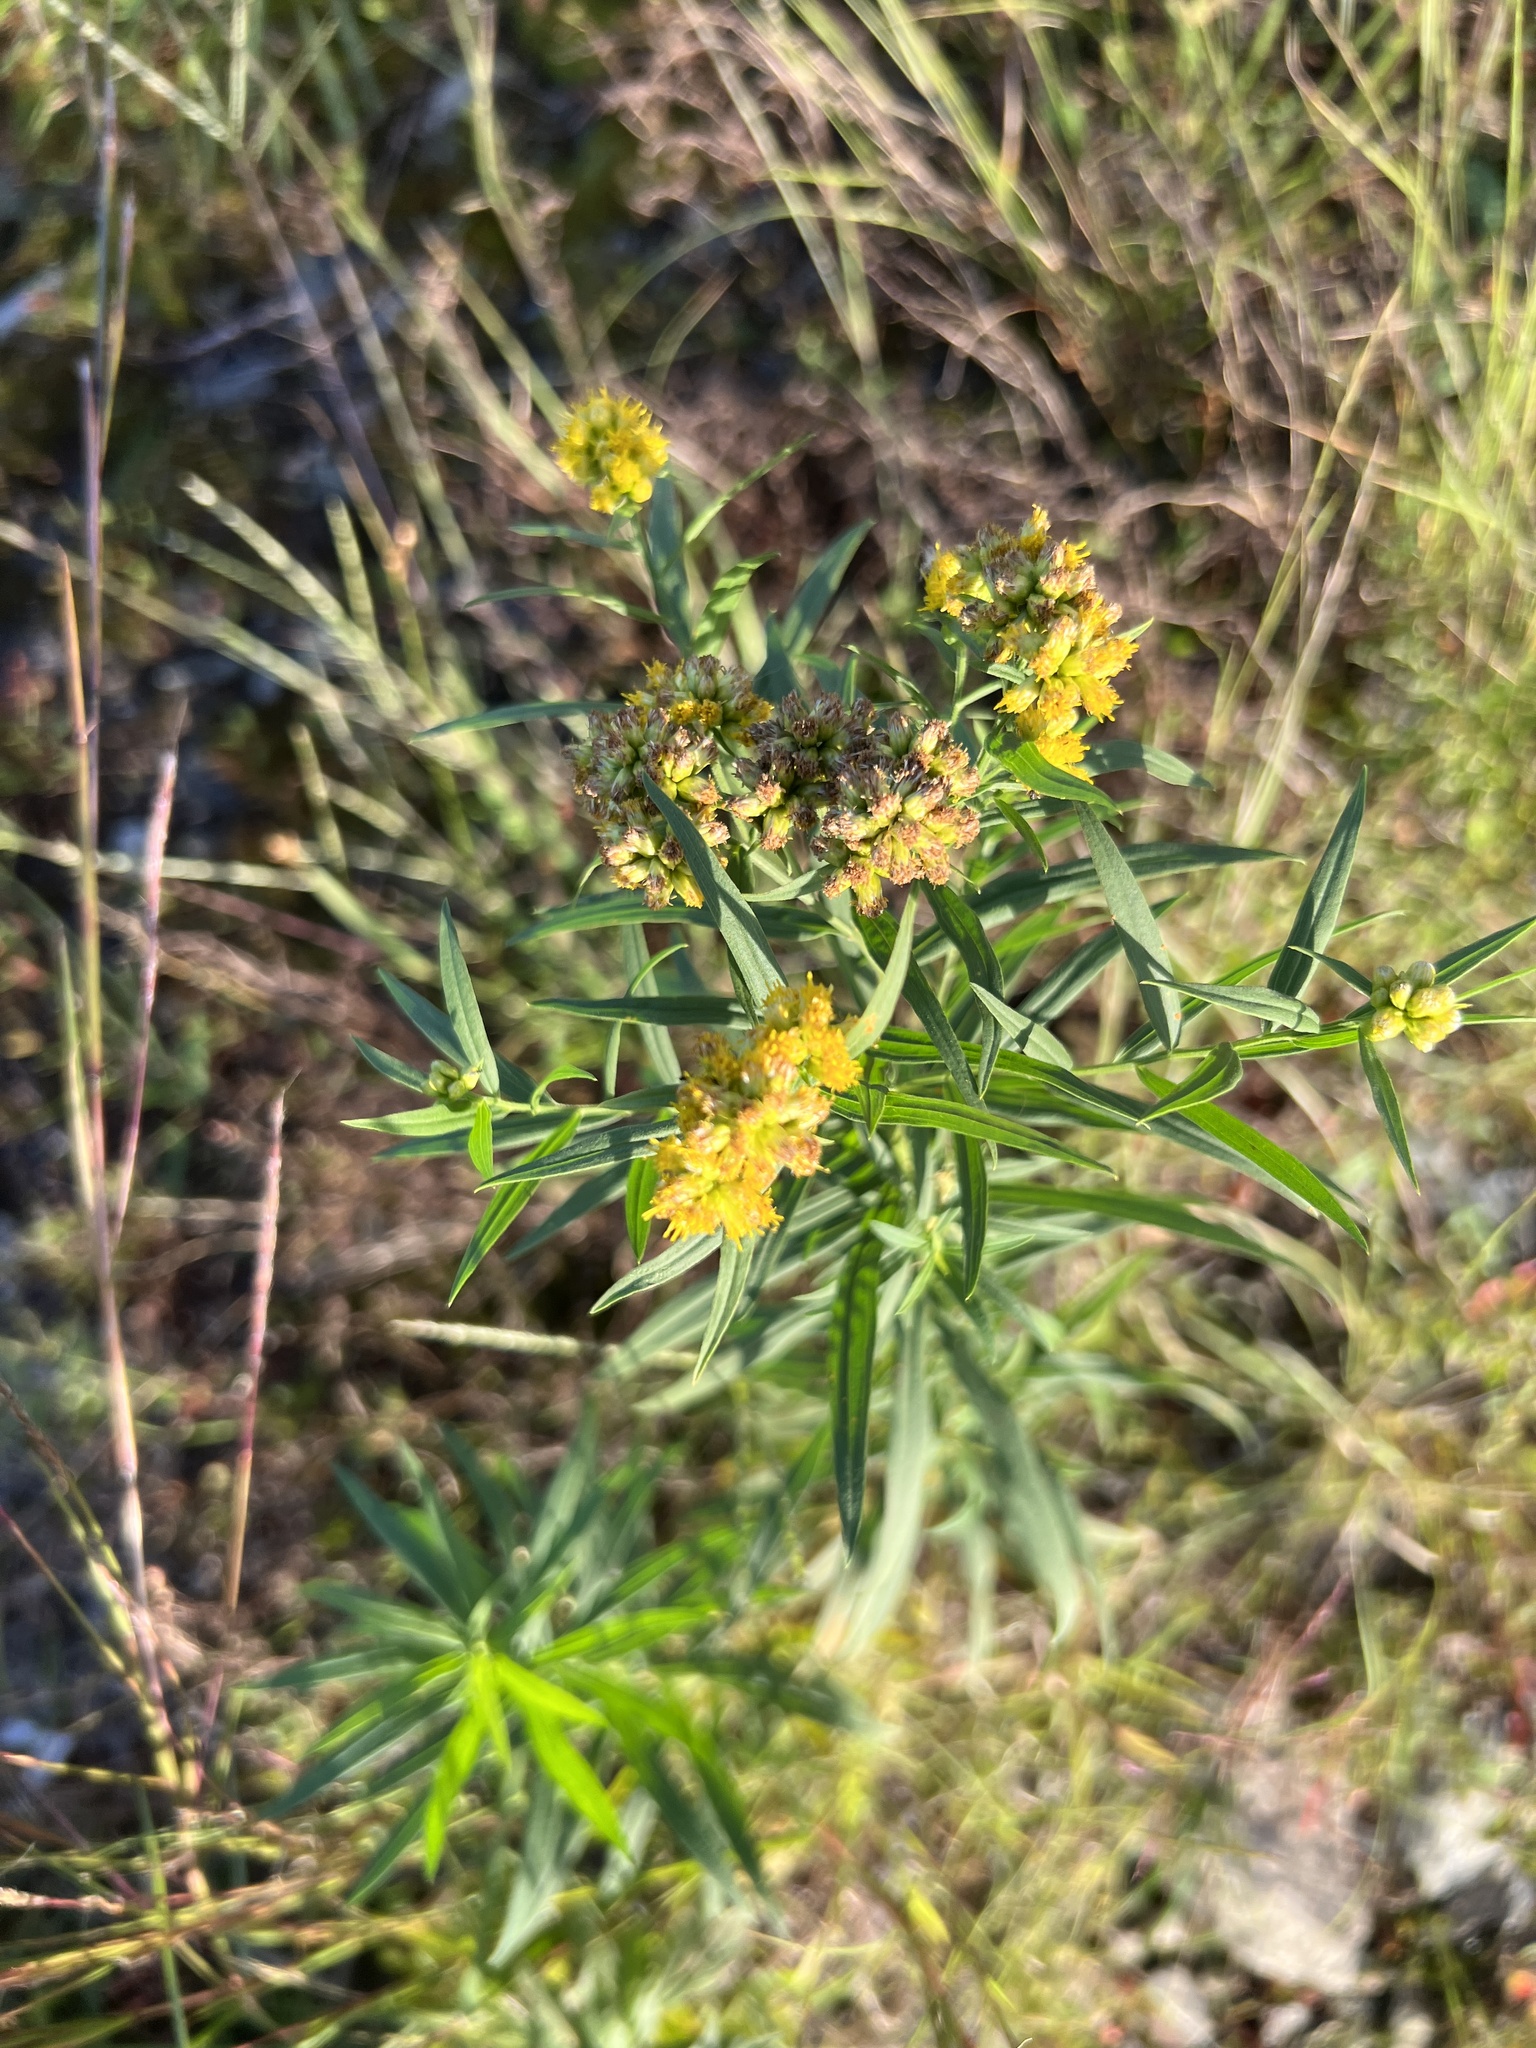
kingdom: Plantae
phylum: Tracheophyta
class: Magnoliopsida
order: Asterales
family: Asteraceae
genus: Euthamia
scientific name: Euthamia graminifolia
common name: Common goldentop
